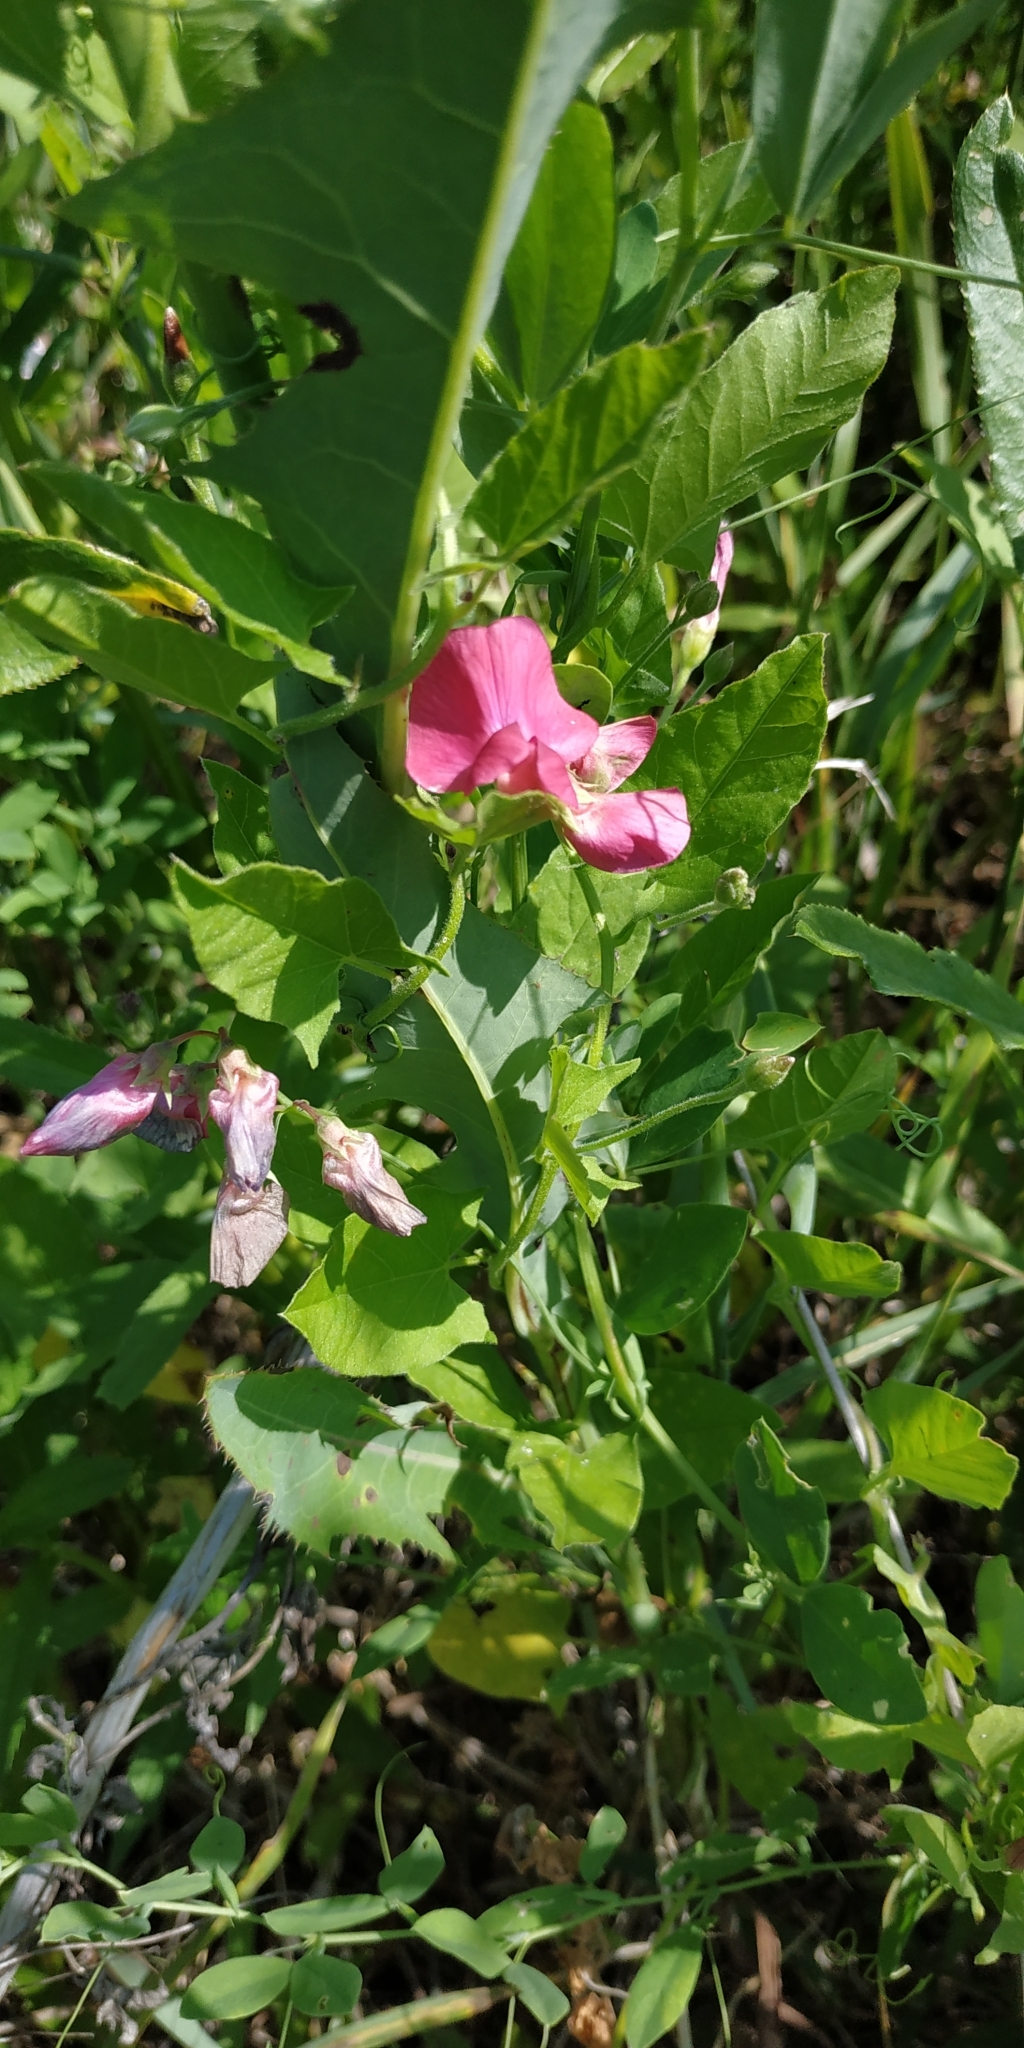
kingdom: Plantae
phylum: Tracheophyta
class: Magnoliopsida
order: Fabales
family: Fabaceae
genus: Lathyrus
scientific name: Lathyrus tuberosus
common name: Tuberous pea
